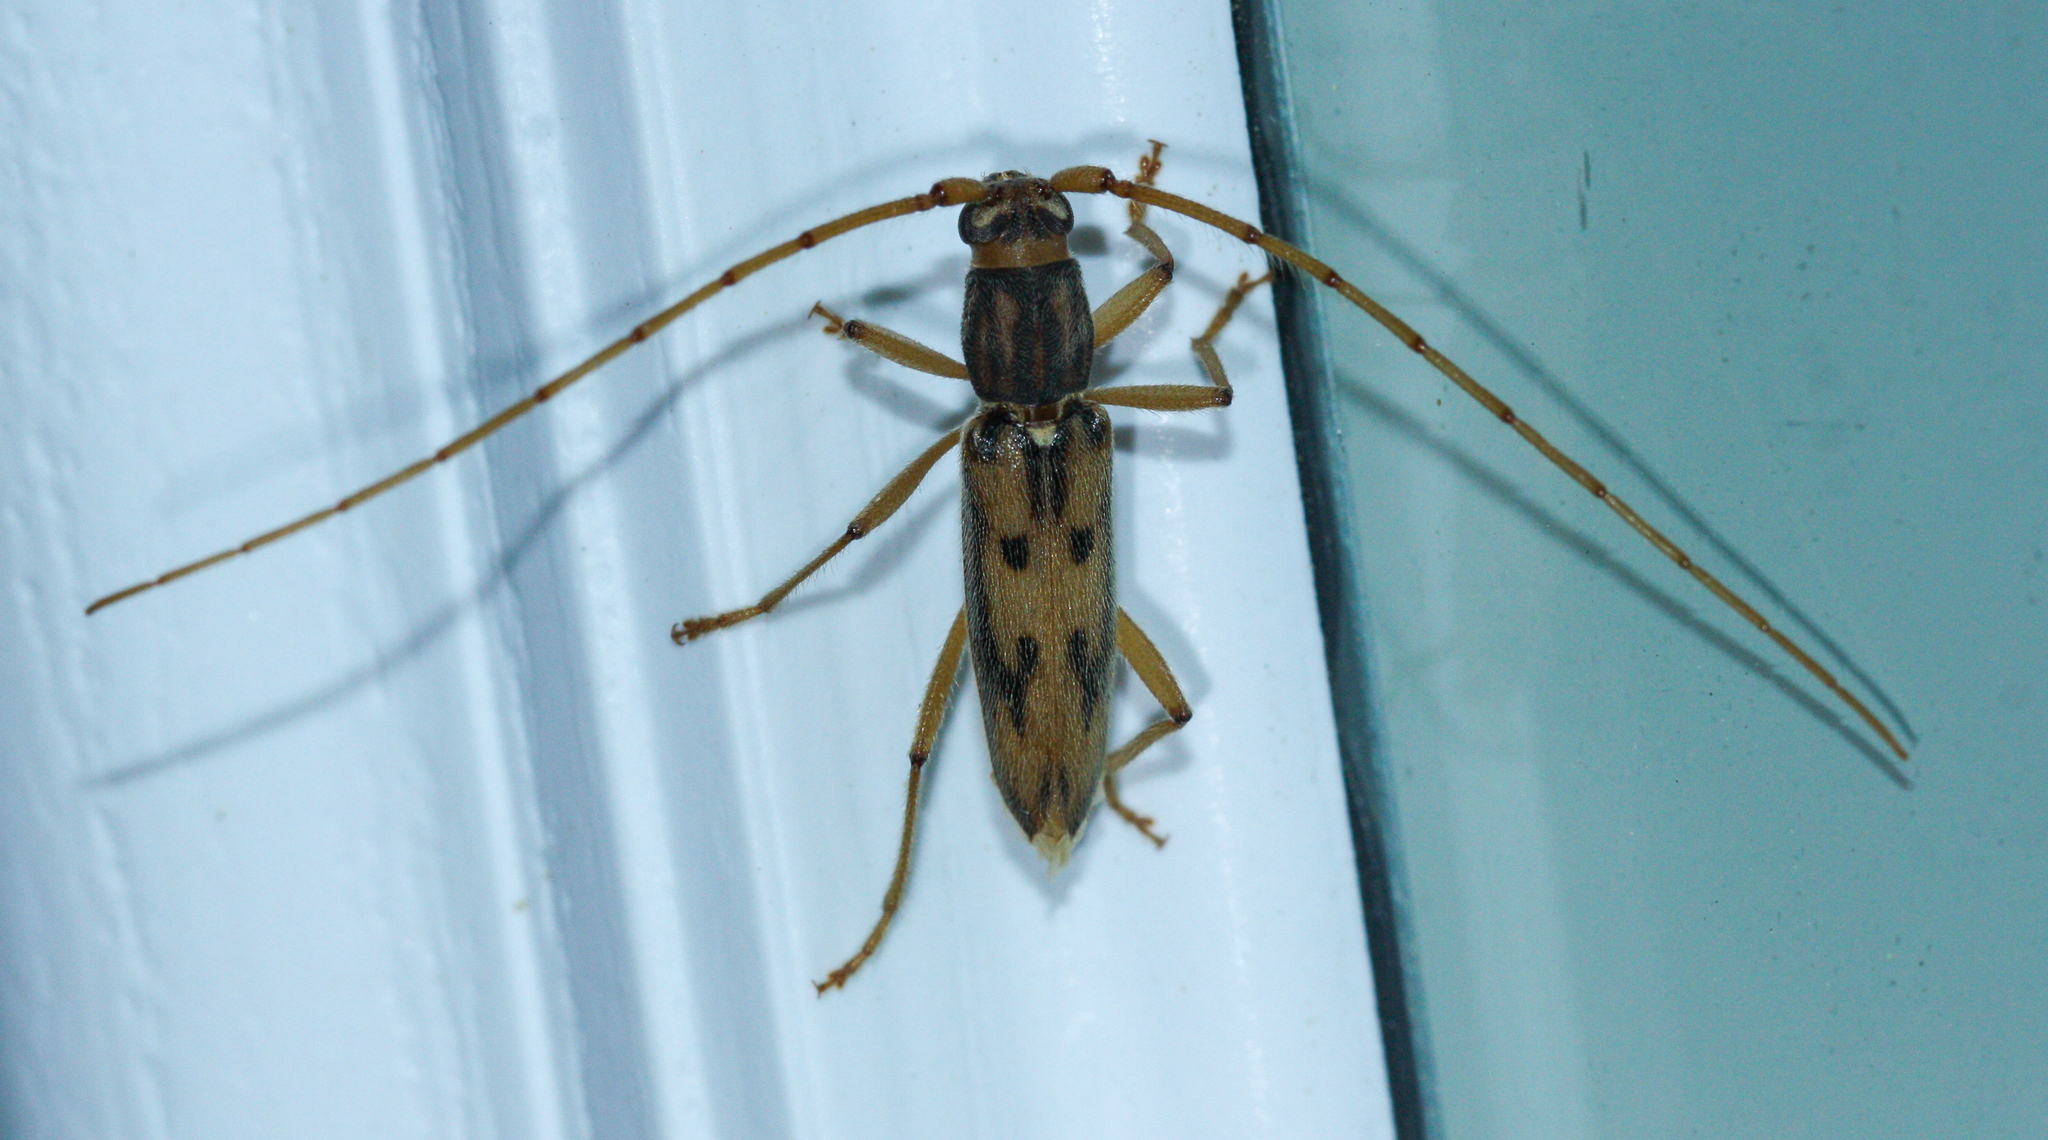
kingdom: Animalia
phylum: Arthropoda
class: Insecta
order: Coleoptera
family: Cerambycidae
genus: Achryson
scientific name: Achryson surinamum
